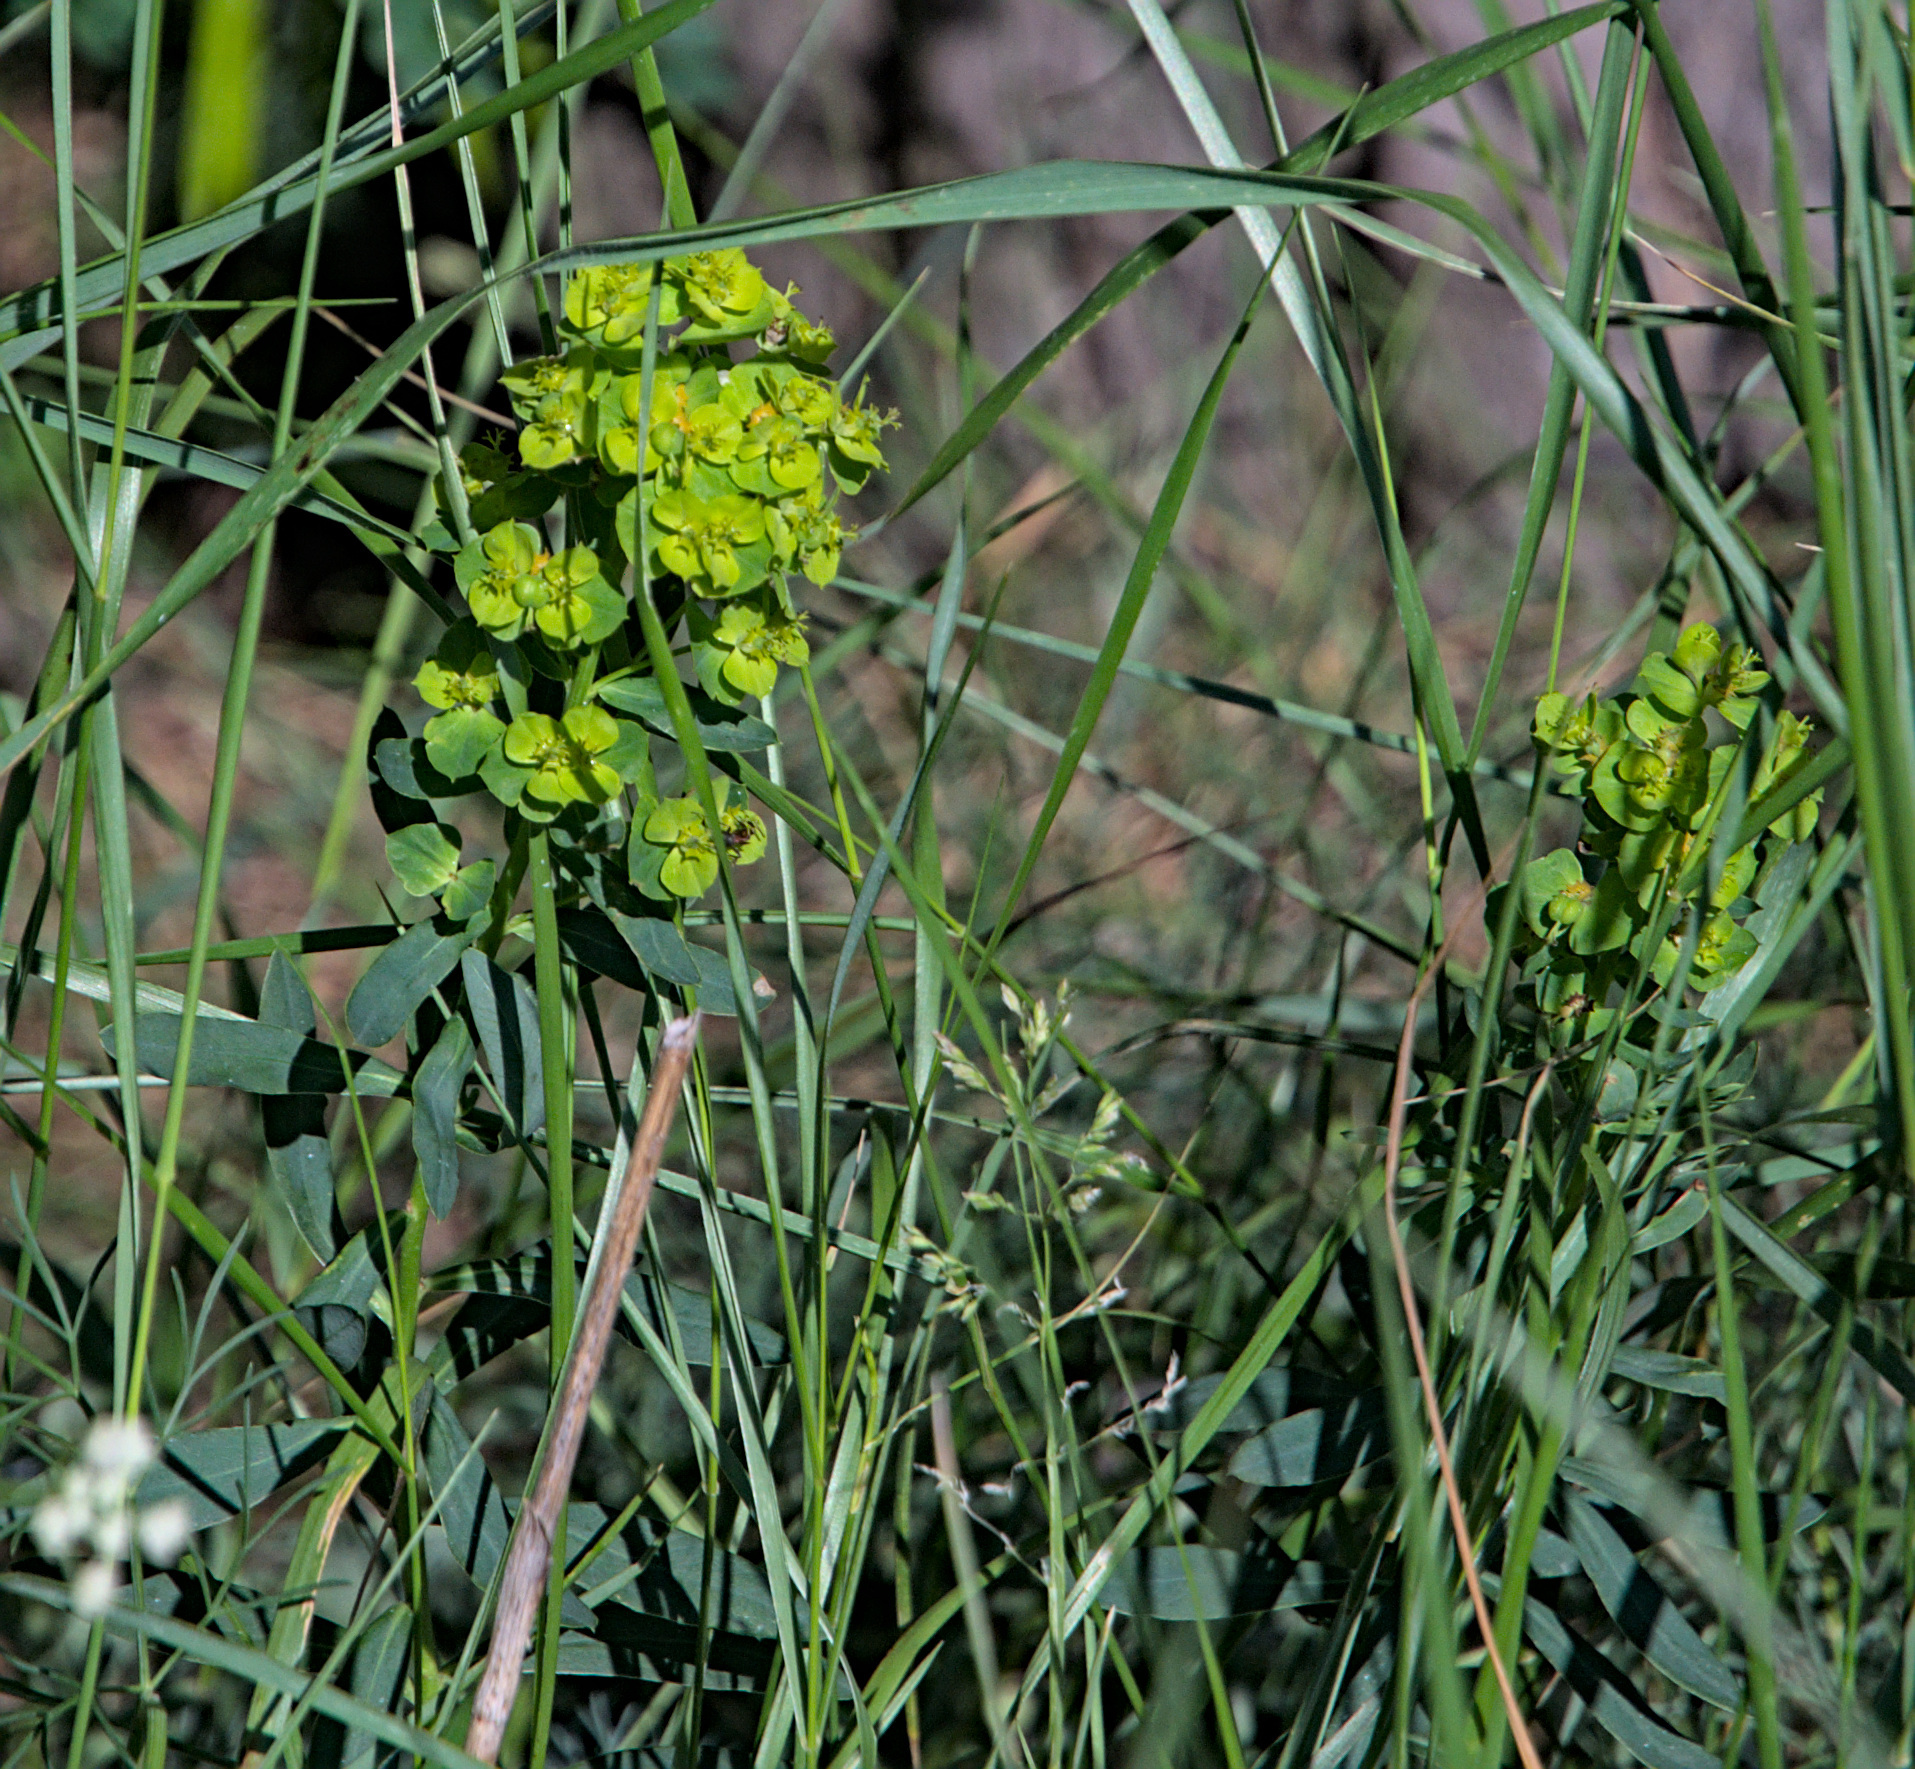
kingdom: Plantae
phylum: Tracheophyta
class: Magnoliopsida
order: Malpighiales
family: Euphorbiaceae
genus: Euphorbia
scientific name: Euphorbia virgata
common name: Leafy spurge
